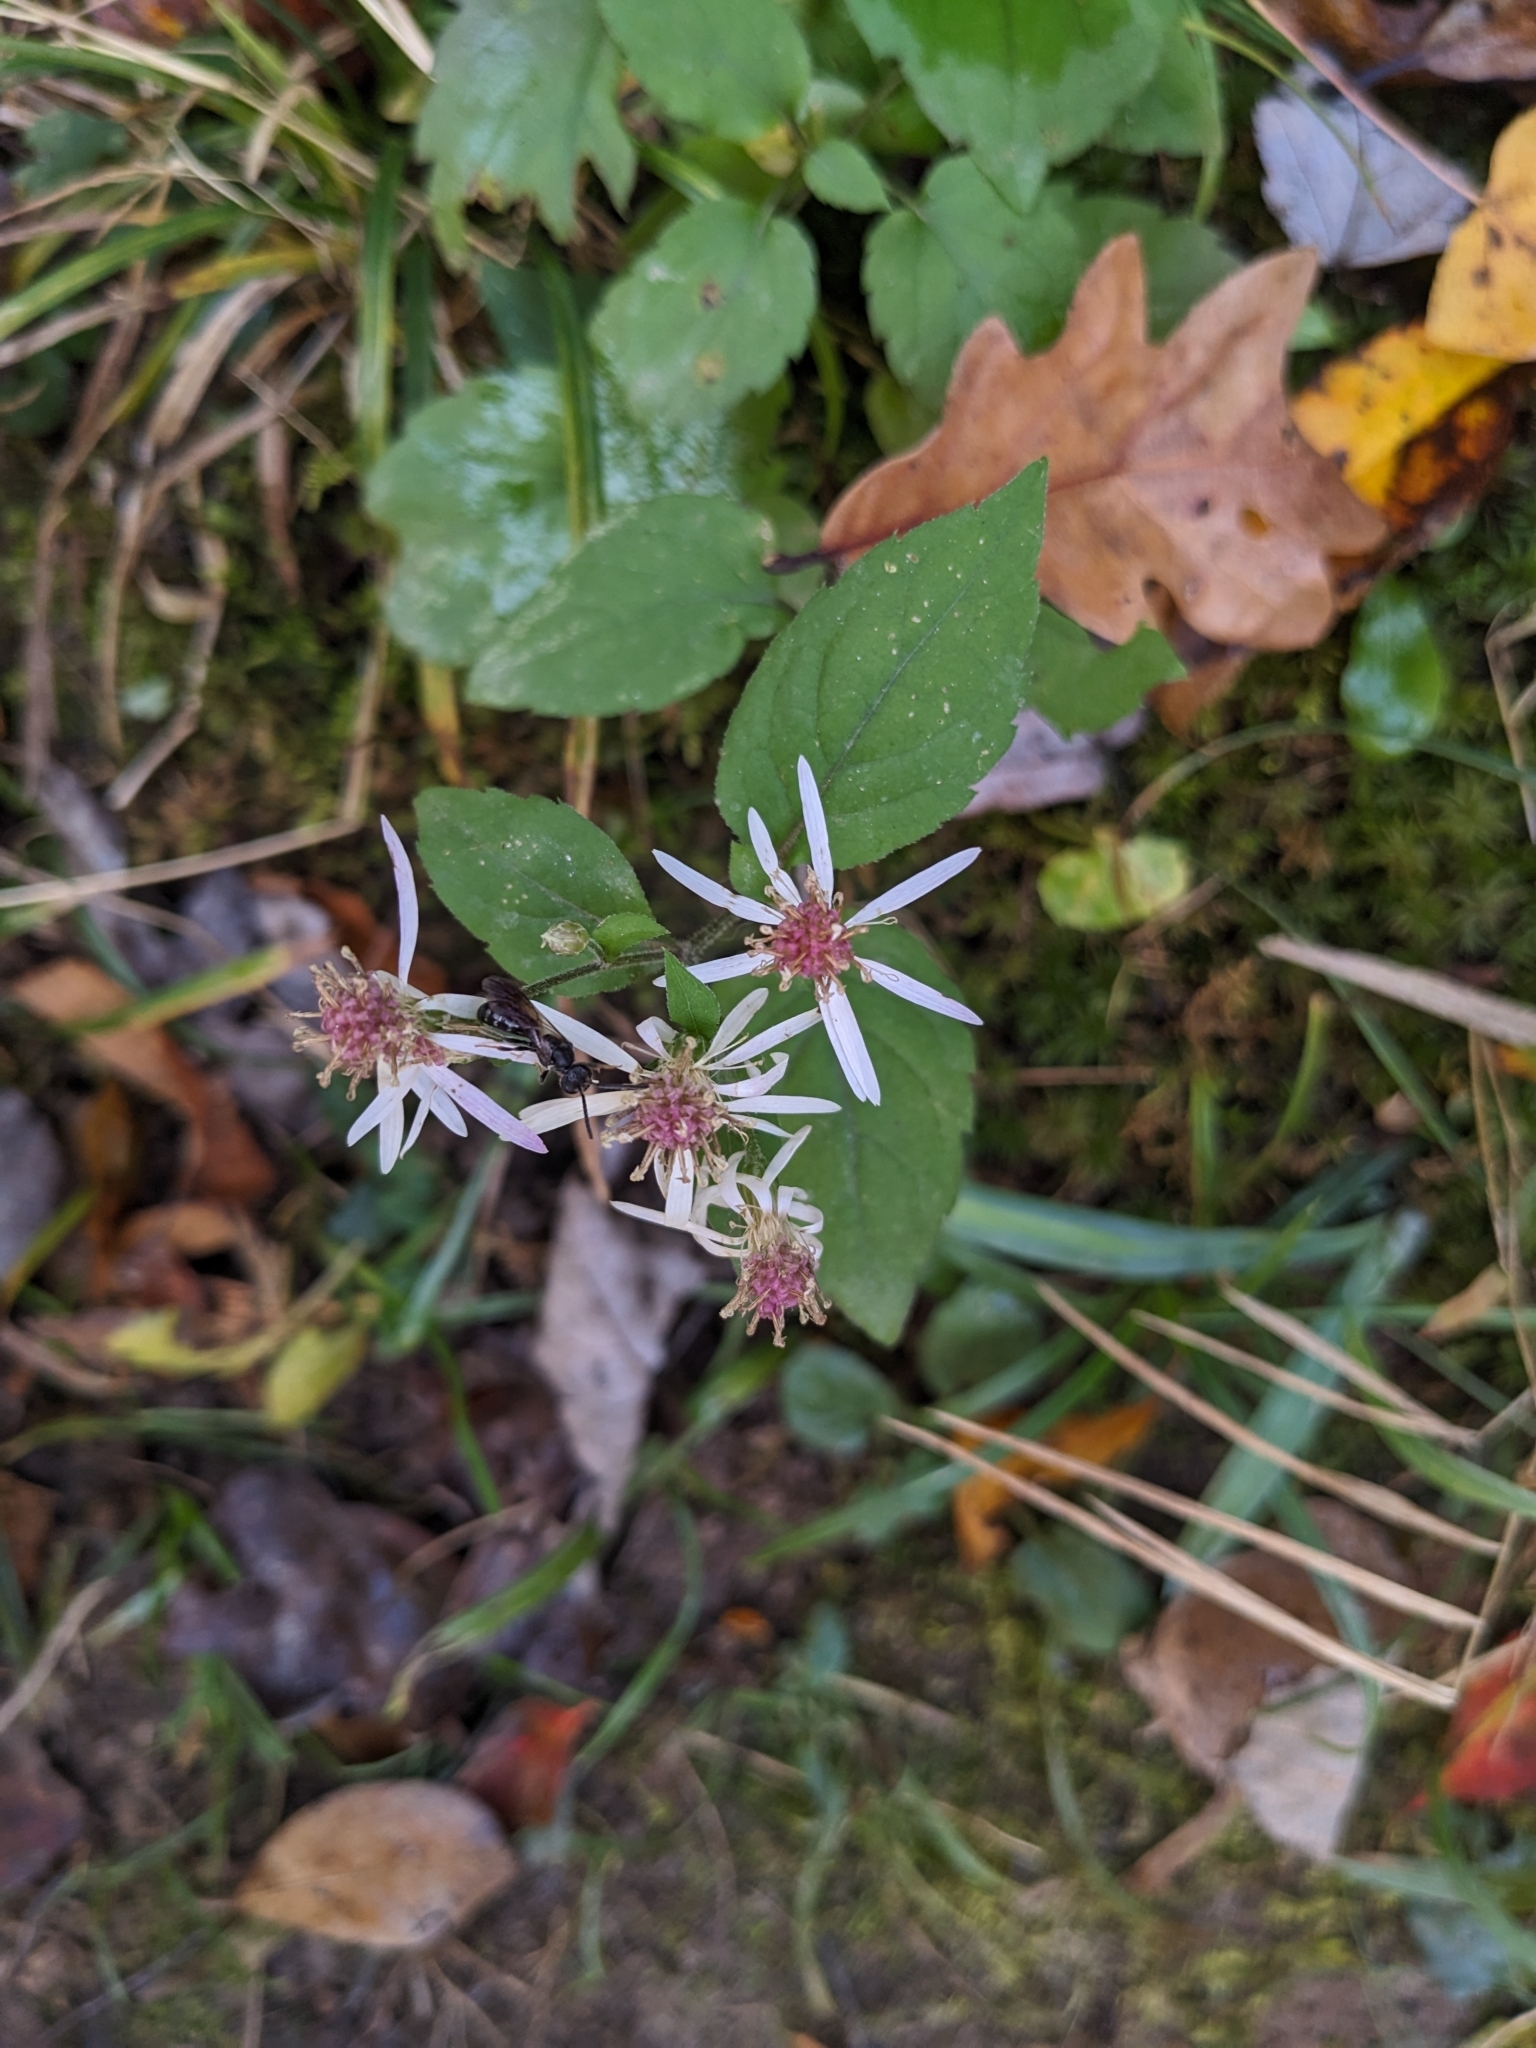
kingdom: Plantae
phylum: Tracheophyta
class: Magnoliopsida
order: Asterales
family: Asteraceae
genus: Eurybia
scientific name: Eurybia divaricata
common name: White wood aster
